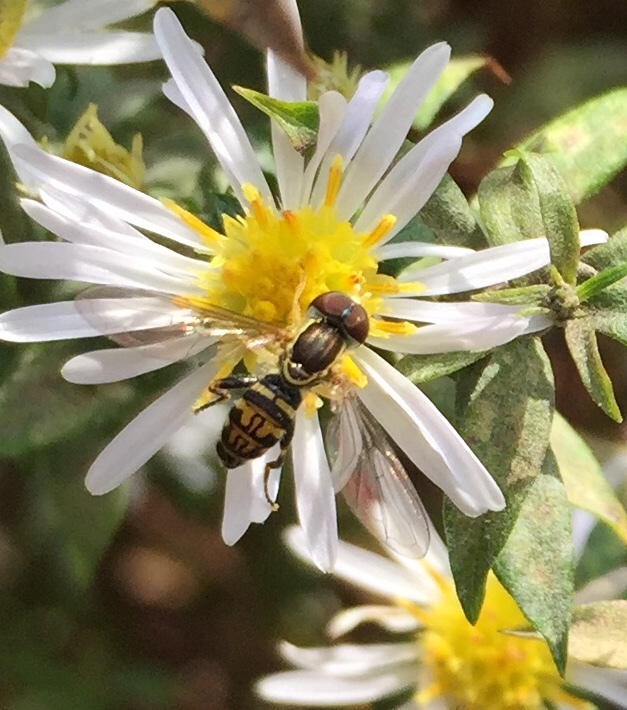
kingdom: Animalia
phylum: Arthropoda
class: Insecta
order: Diptera
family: Syrphidae
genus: Toxomerus
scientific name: Toxomerus geminatus
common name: Eastern calligrapher
